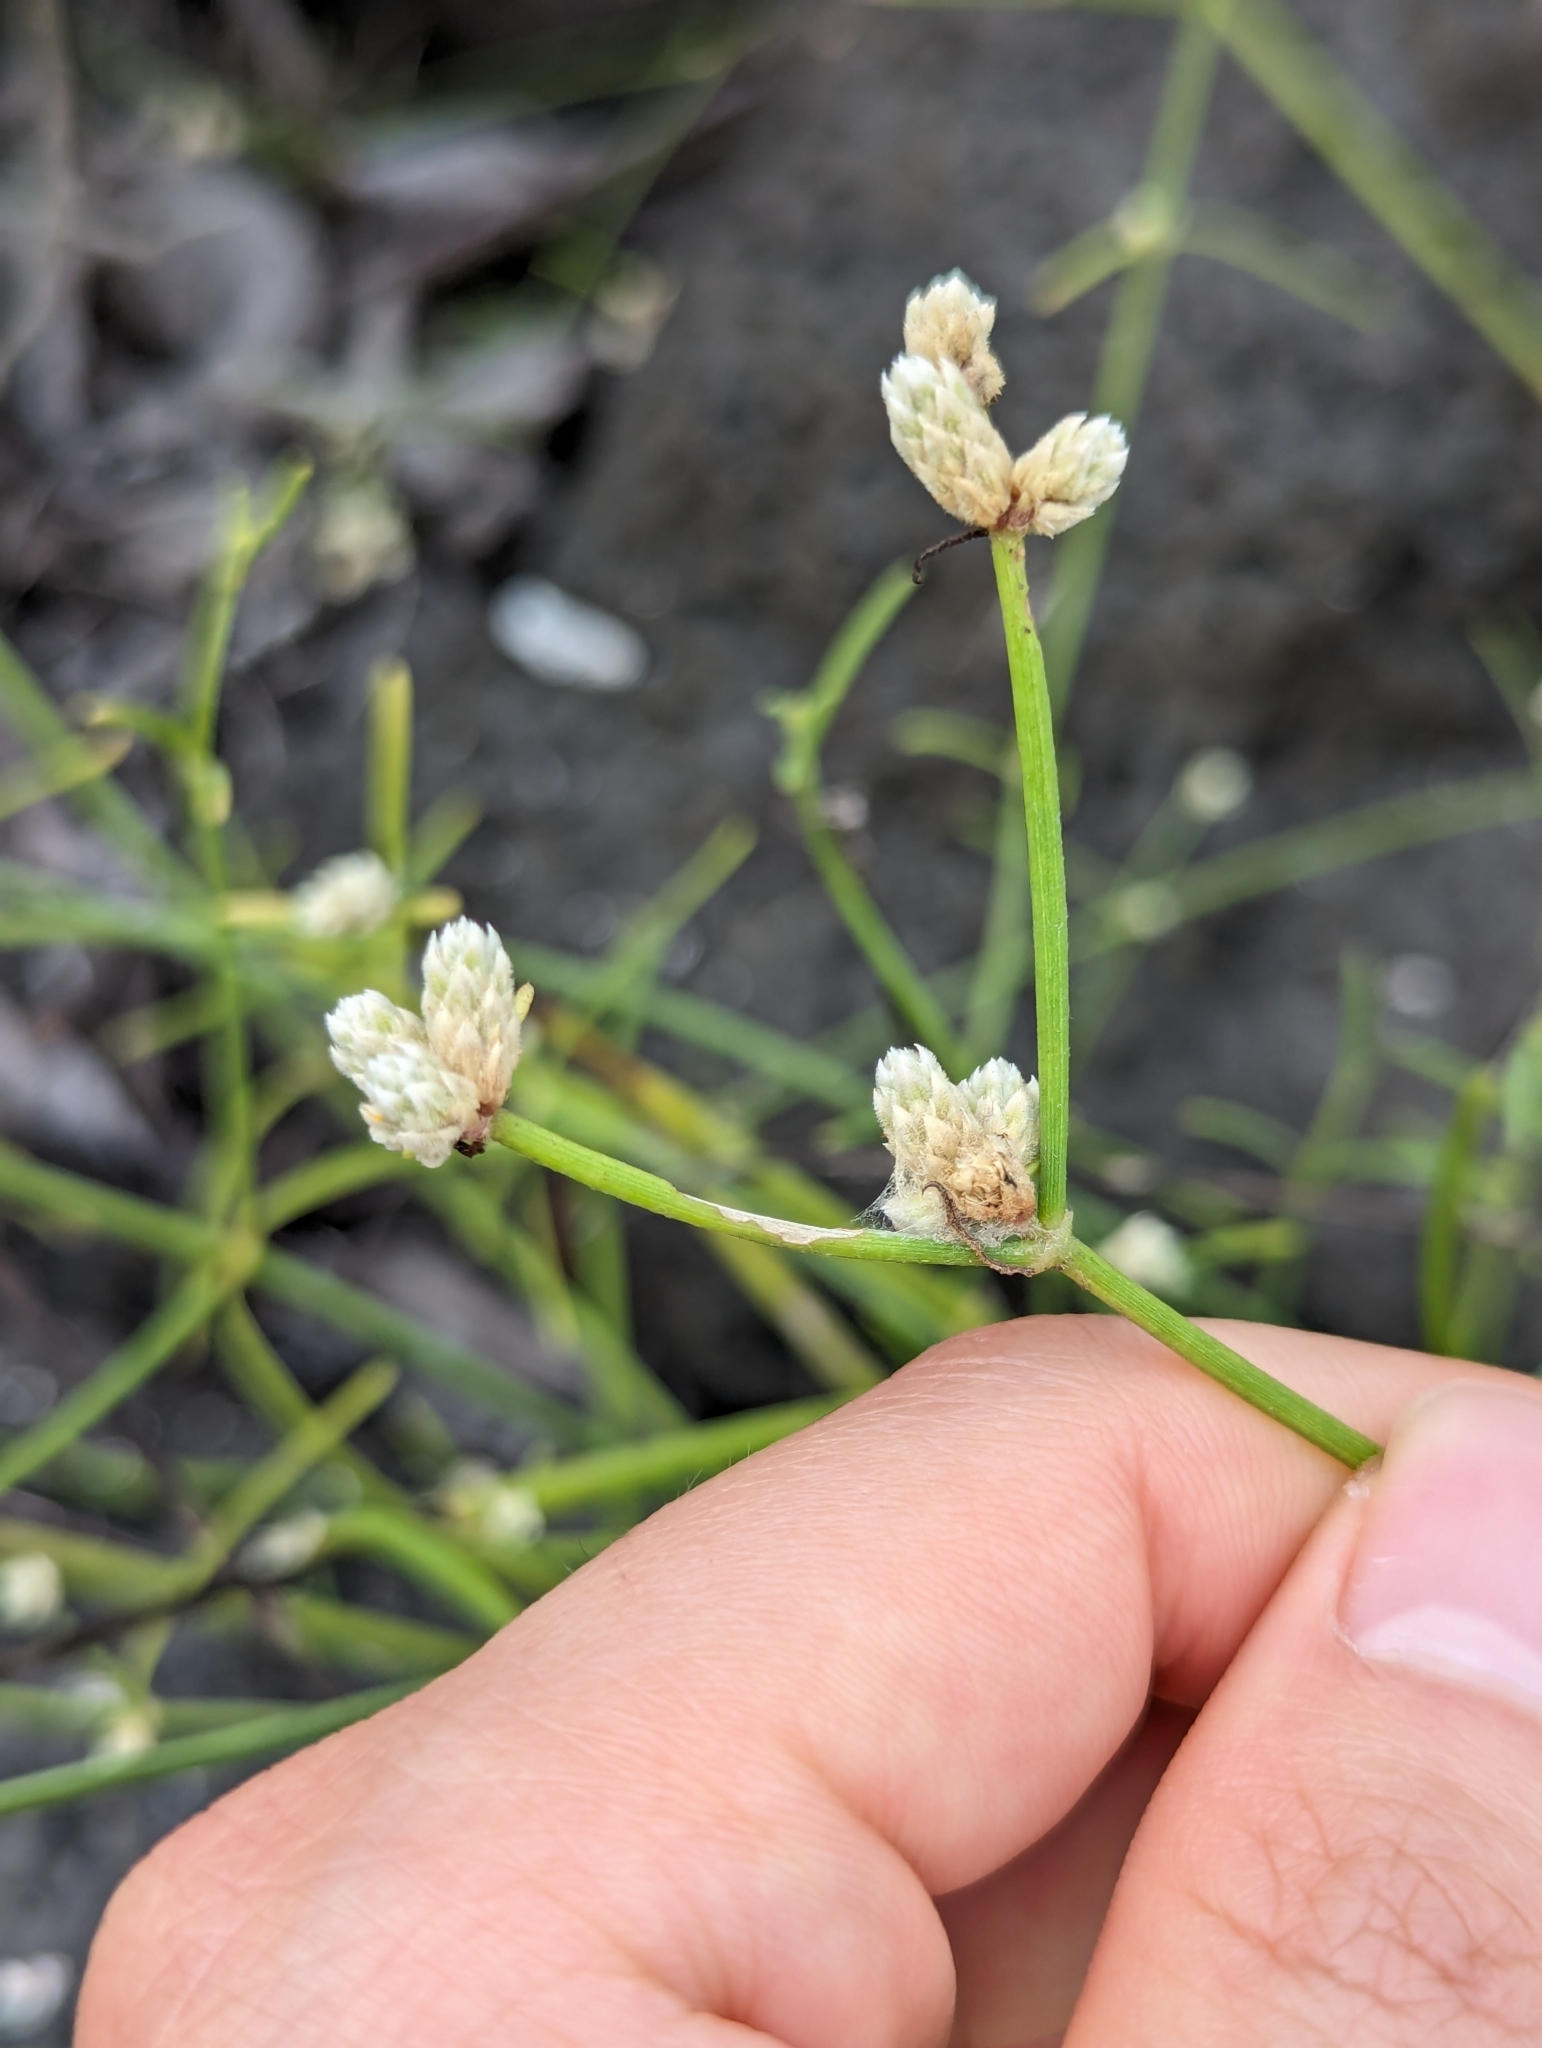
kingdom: Plantae
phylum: Tracheophyta
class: Magnoliopsida
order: Caryophyllales
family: Amaranthaceae
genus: Alternanthera
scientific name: Alternanthera filifolia
